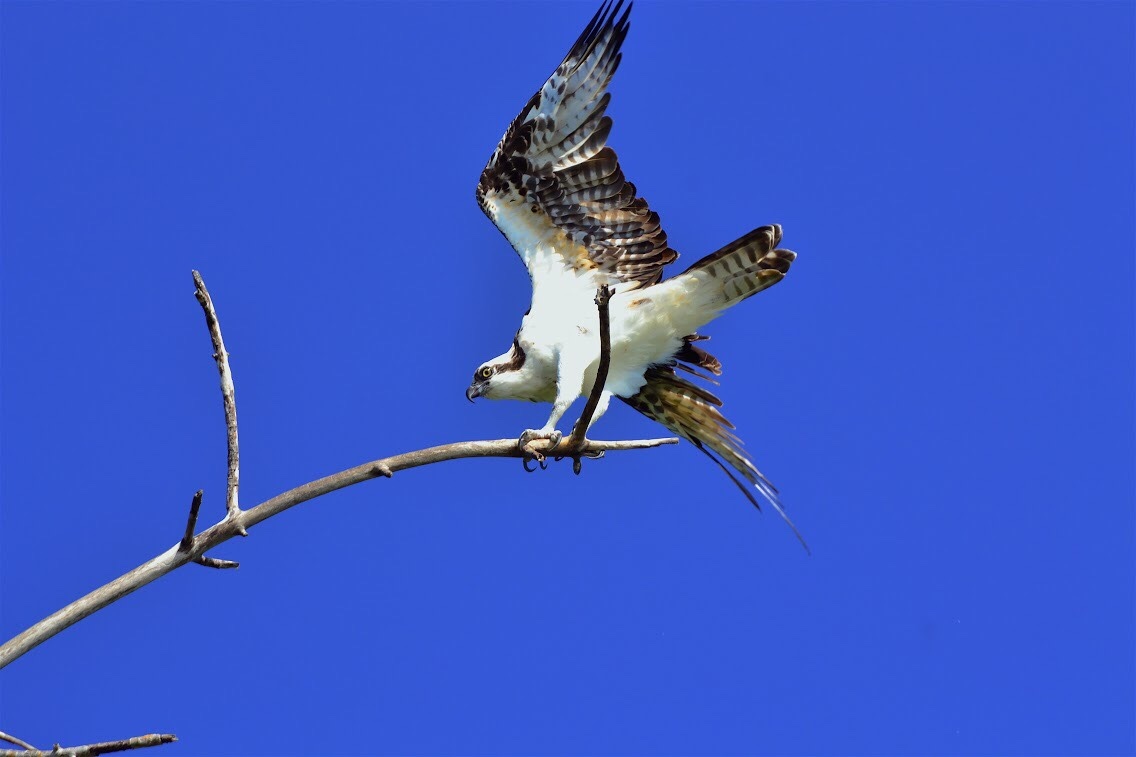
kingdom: Animalia
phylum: Chordata
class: Aves
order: Accipitriformes
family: Pandionidae
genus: Pandion
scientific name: Pandion haliaetus
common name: Osprey
